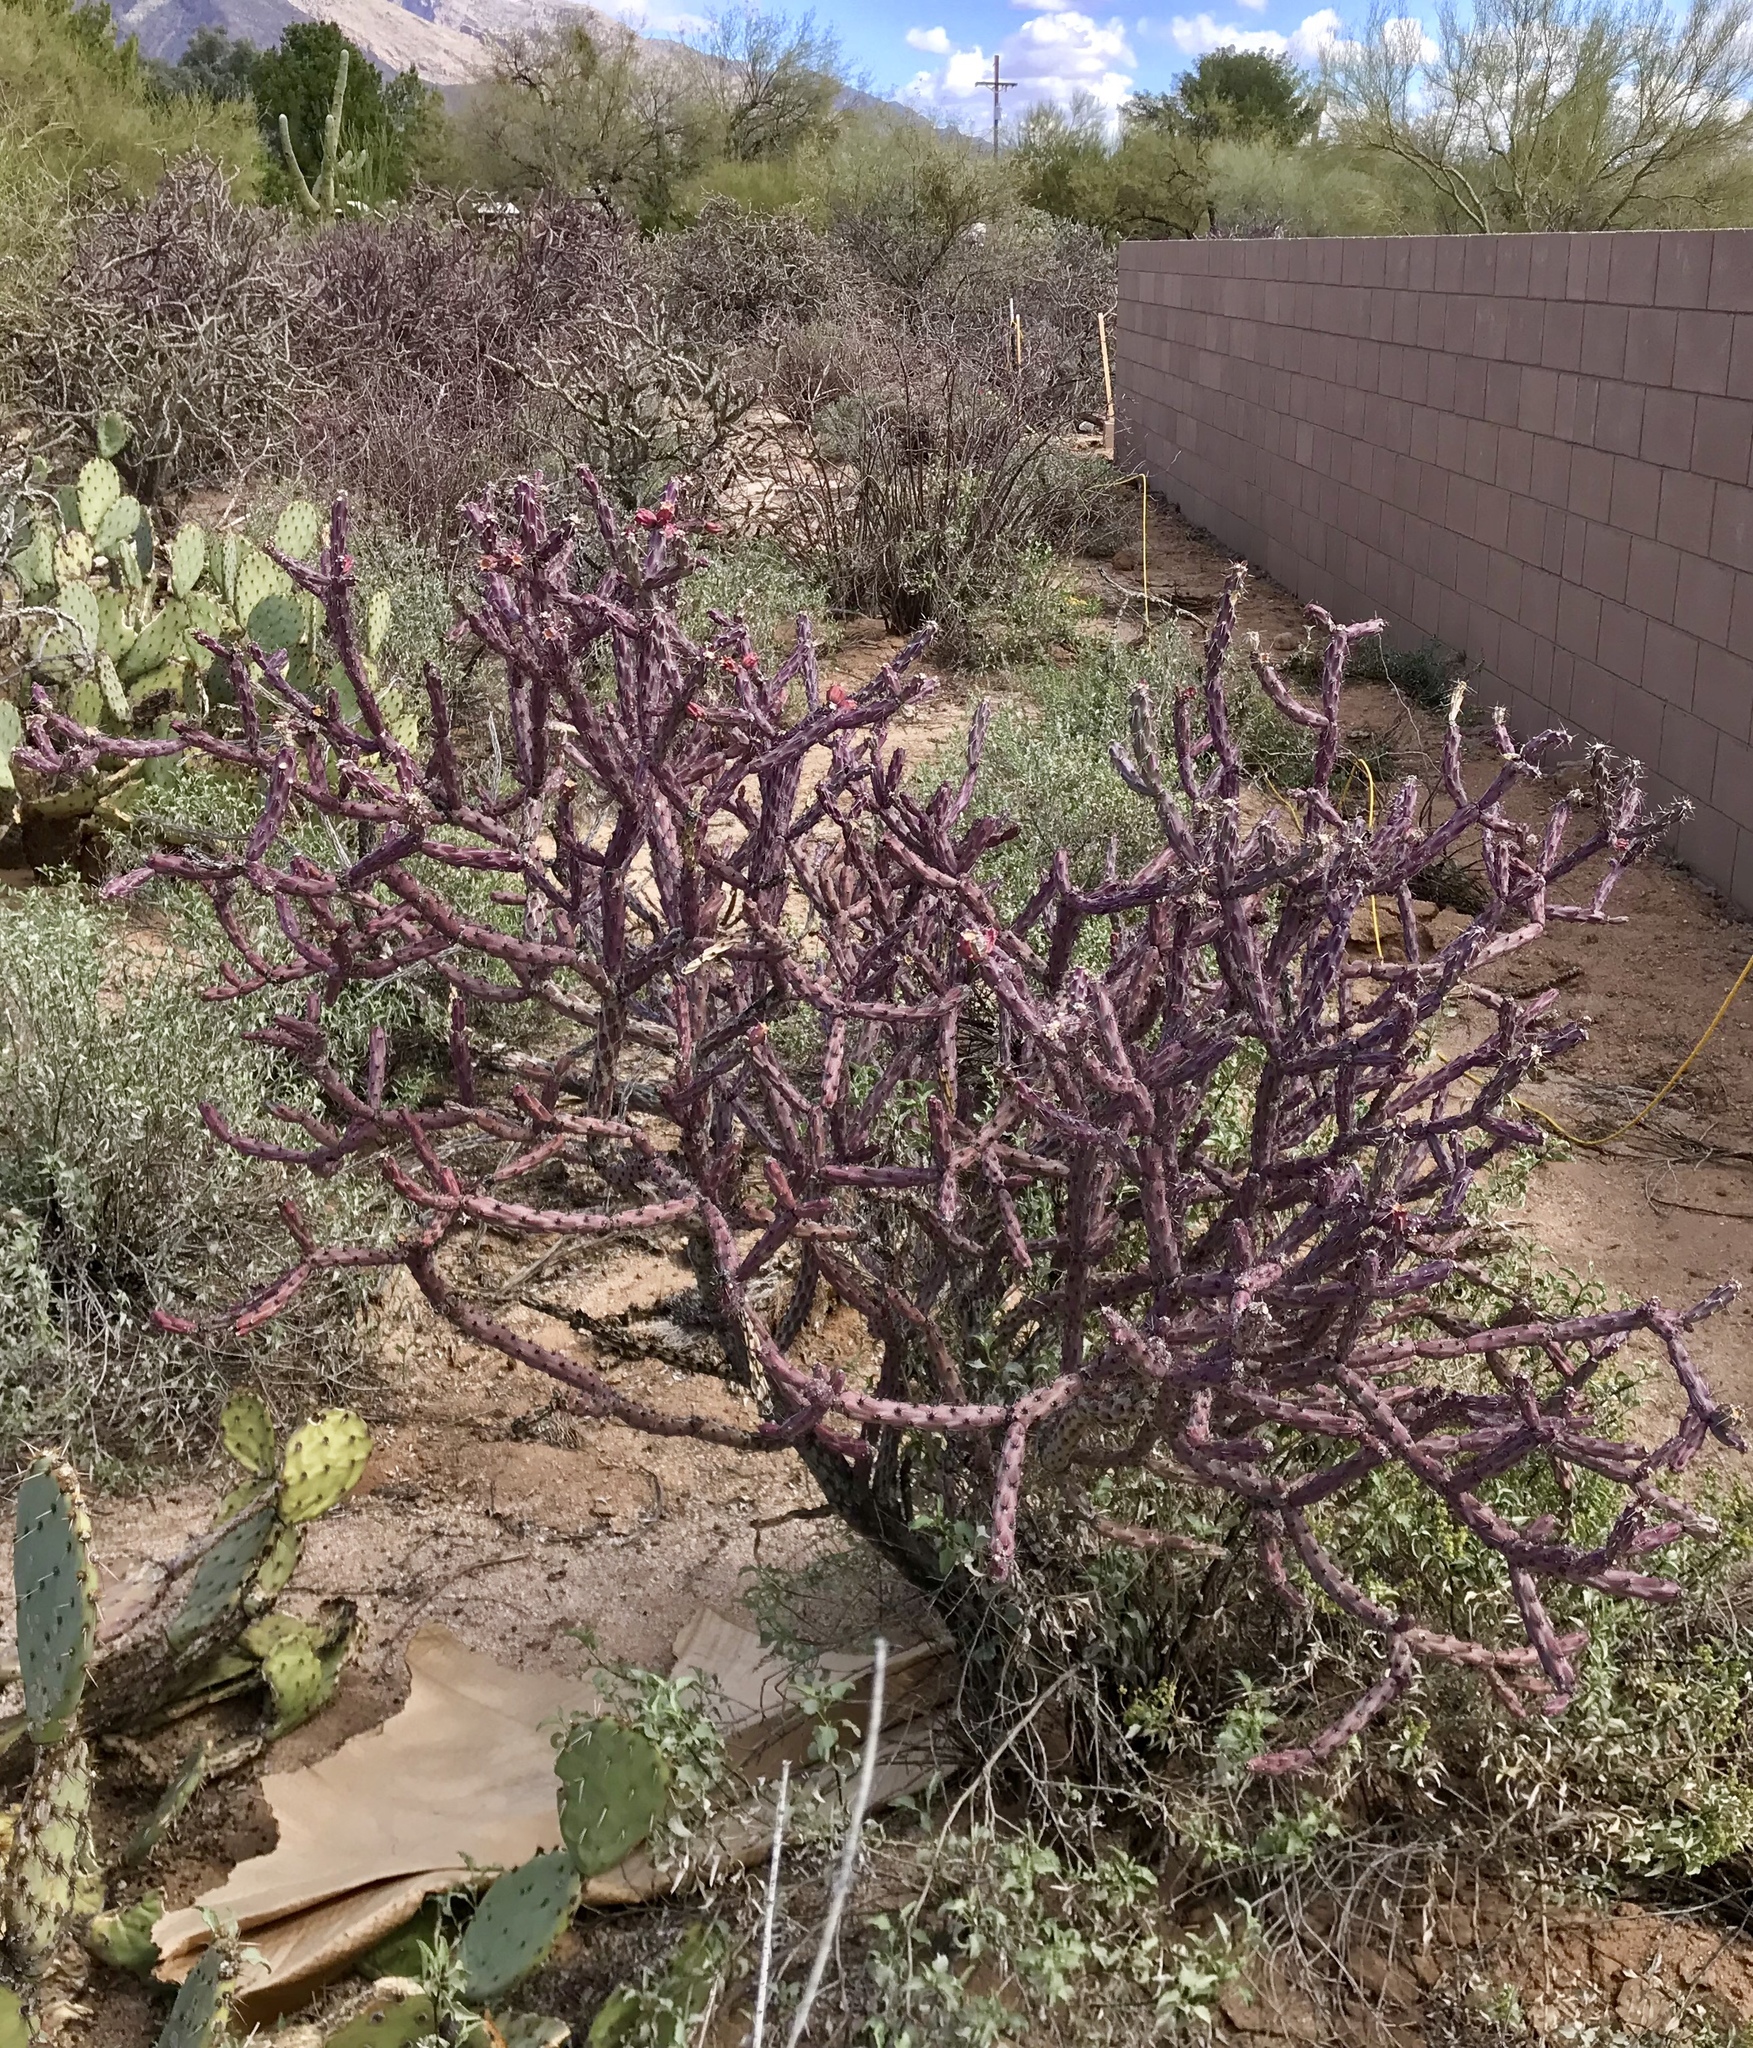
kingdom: Plantae
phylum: Tracheophyta
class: Magnoliopsida
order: Caryophyllales
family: Cactaceae
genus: Cylindropuntia
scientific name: Cylindropuntia thurberi
